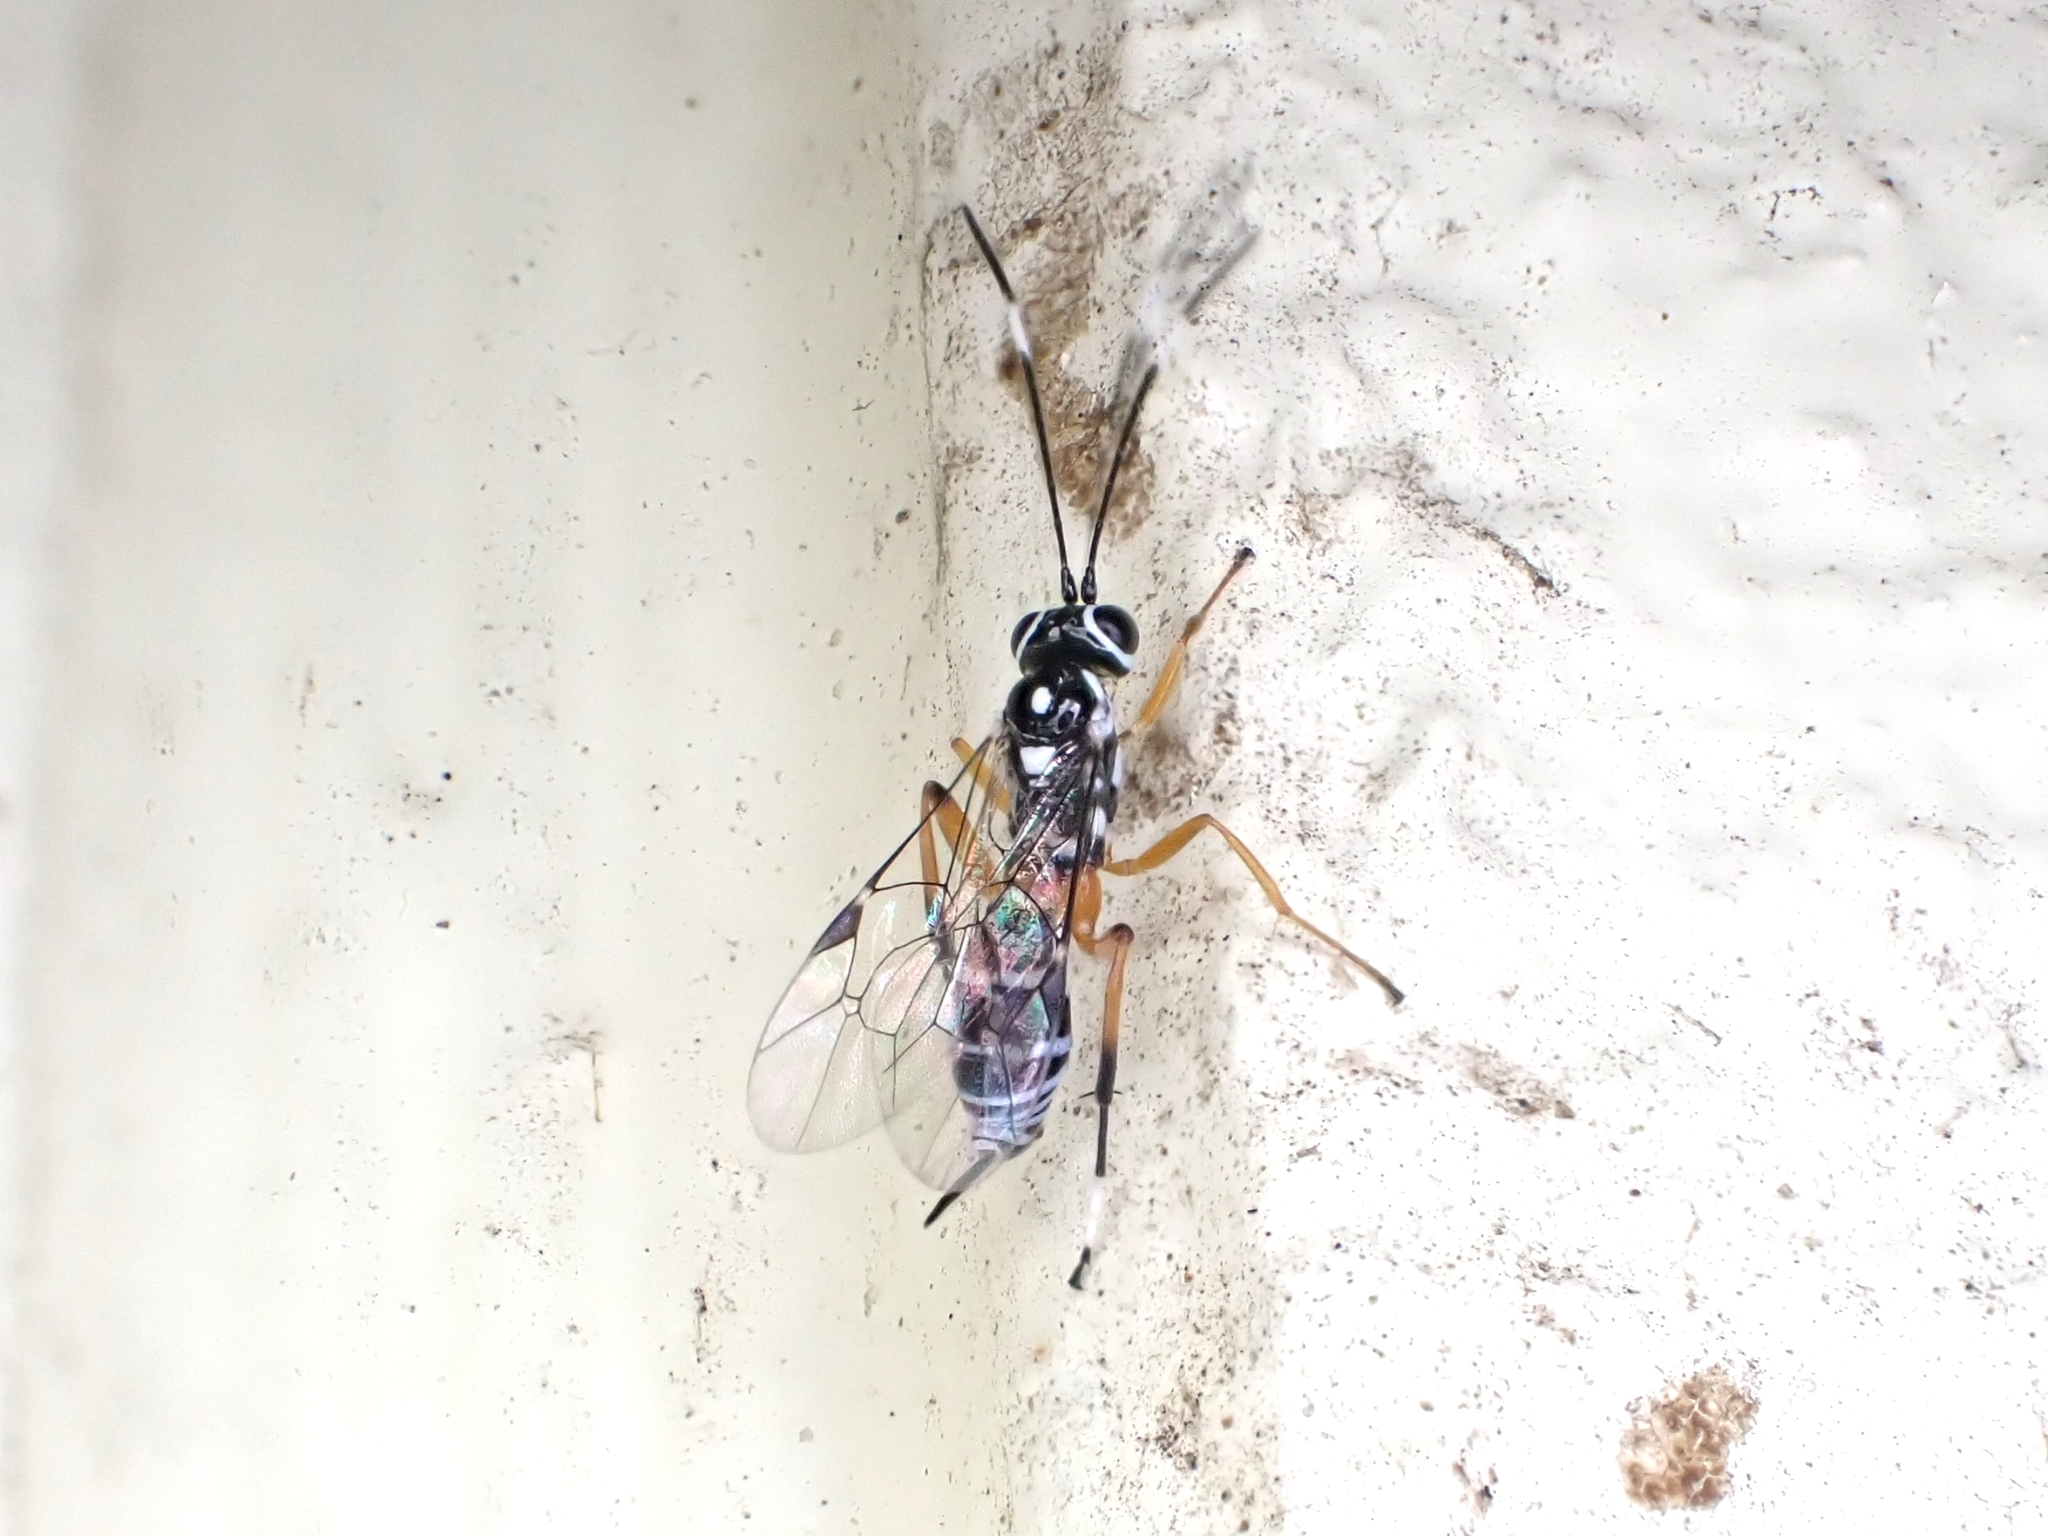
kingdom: Animalia
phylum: Arthropoda
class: Insecta
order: Hymenoptera
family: Ichneumonidae
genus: Glabridorsum
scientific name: Glabridorsum stokesii
